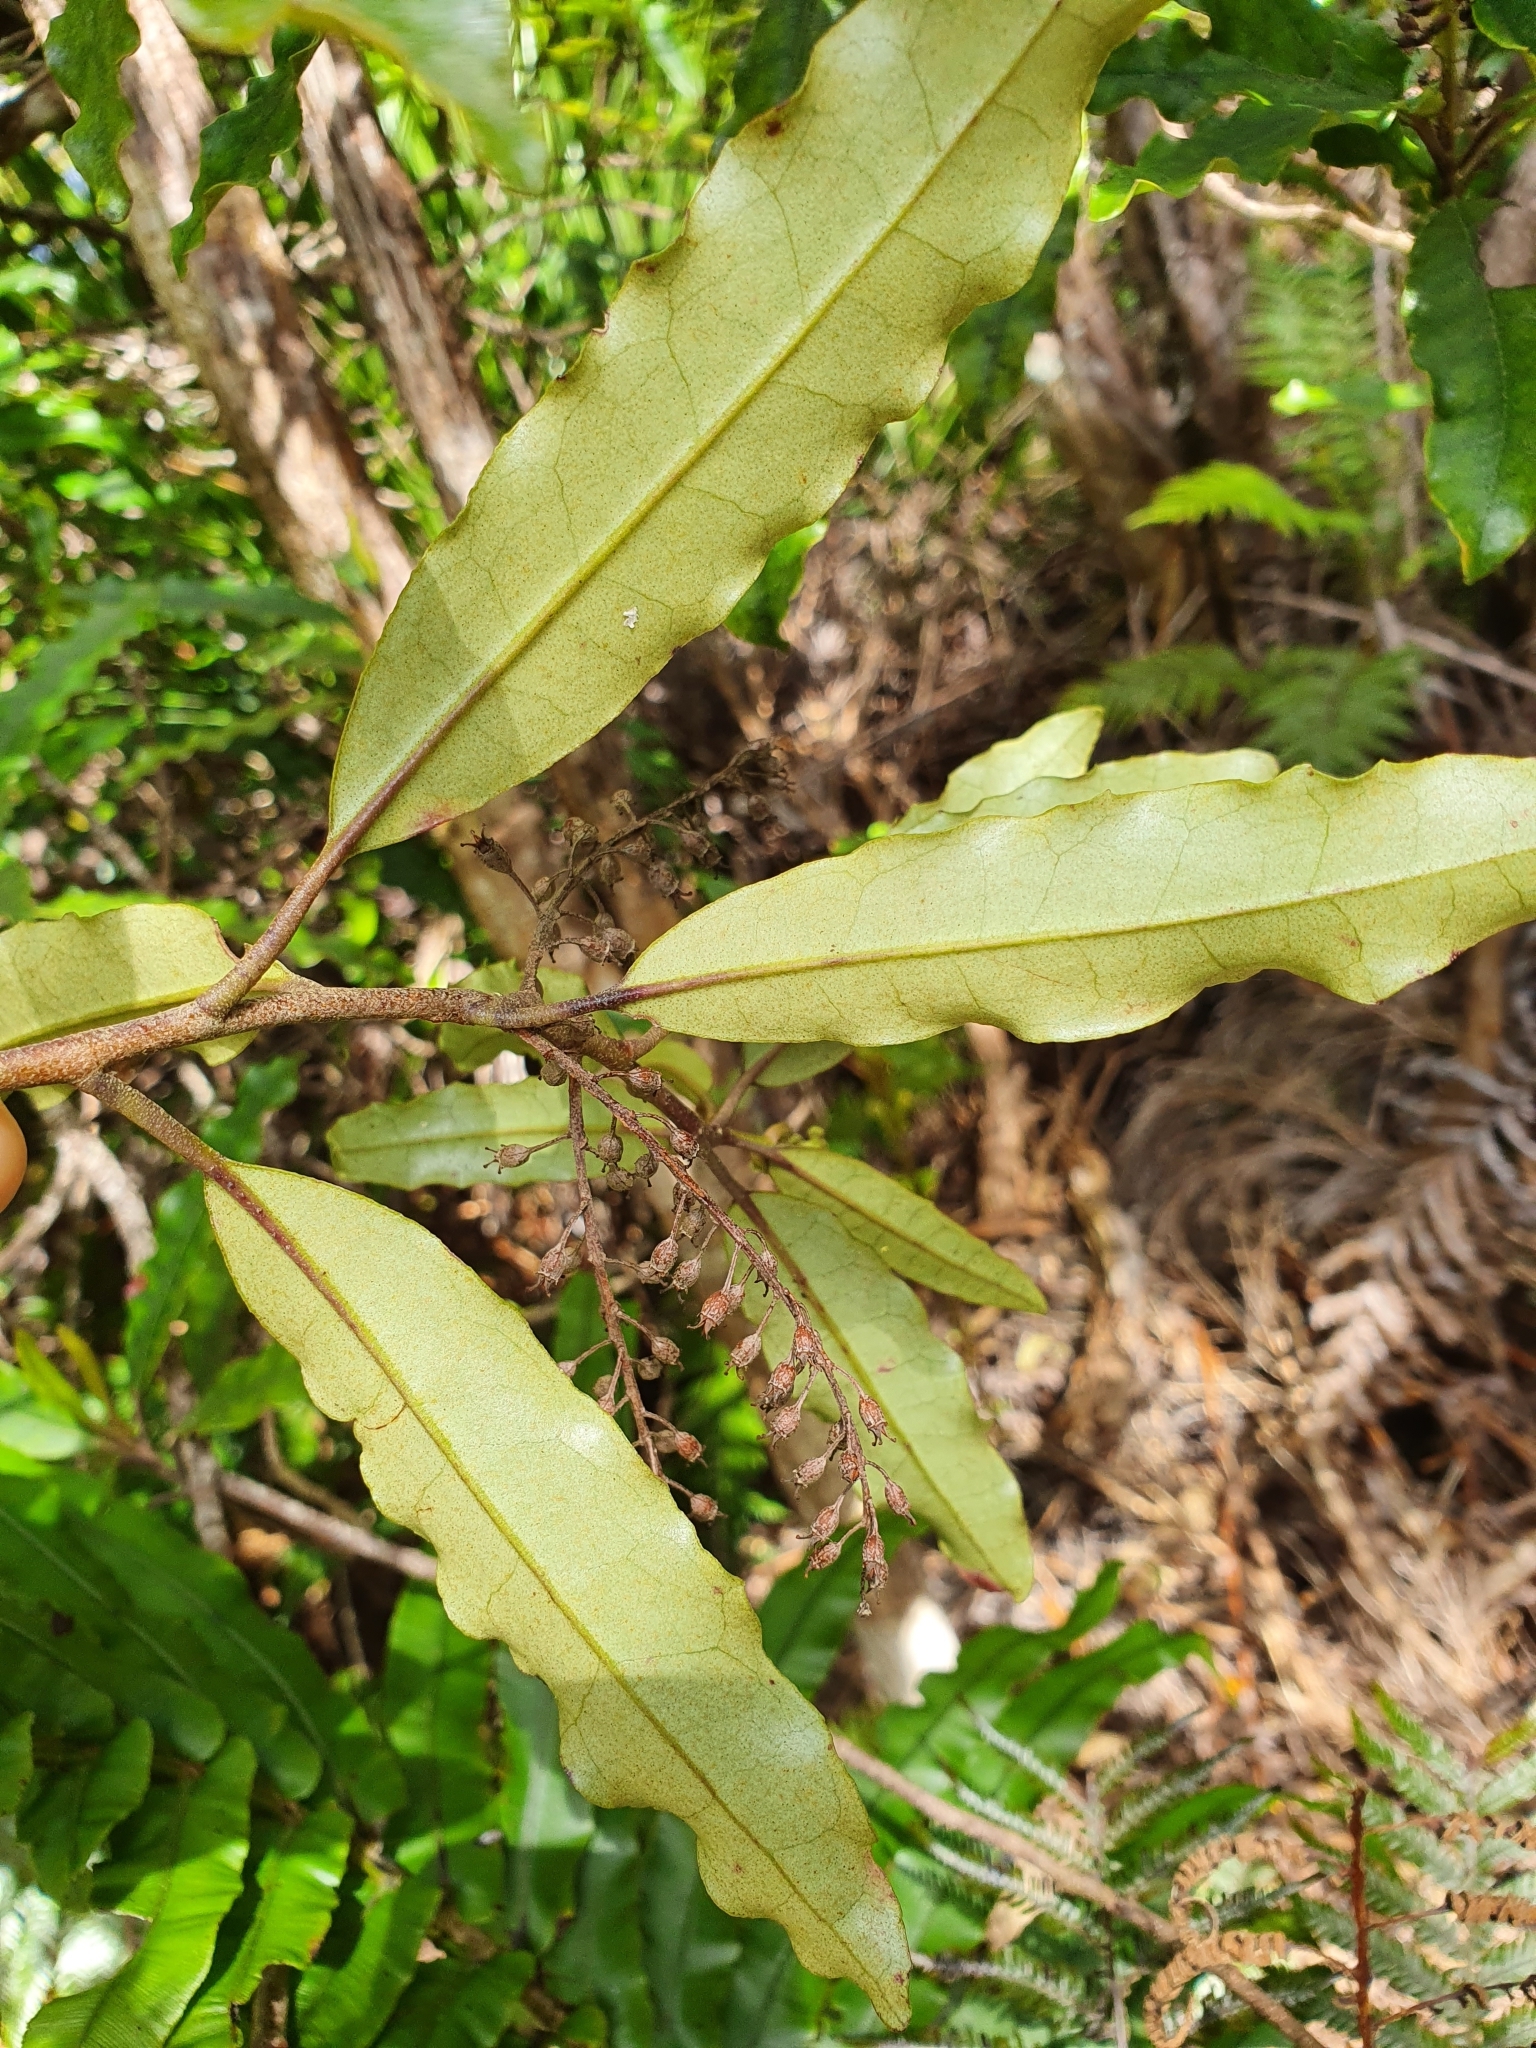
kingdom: Plantae
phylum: Tracheophyta
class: Magnoliopsida
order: Paracryphiales
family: Paracryphiaceae
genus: Quintinia
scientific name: Quintinia serrata
